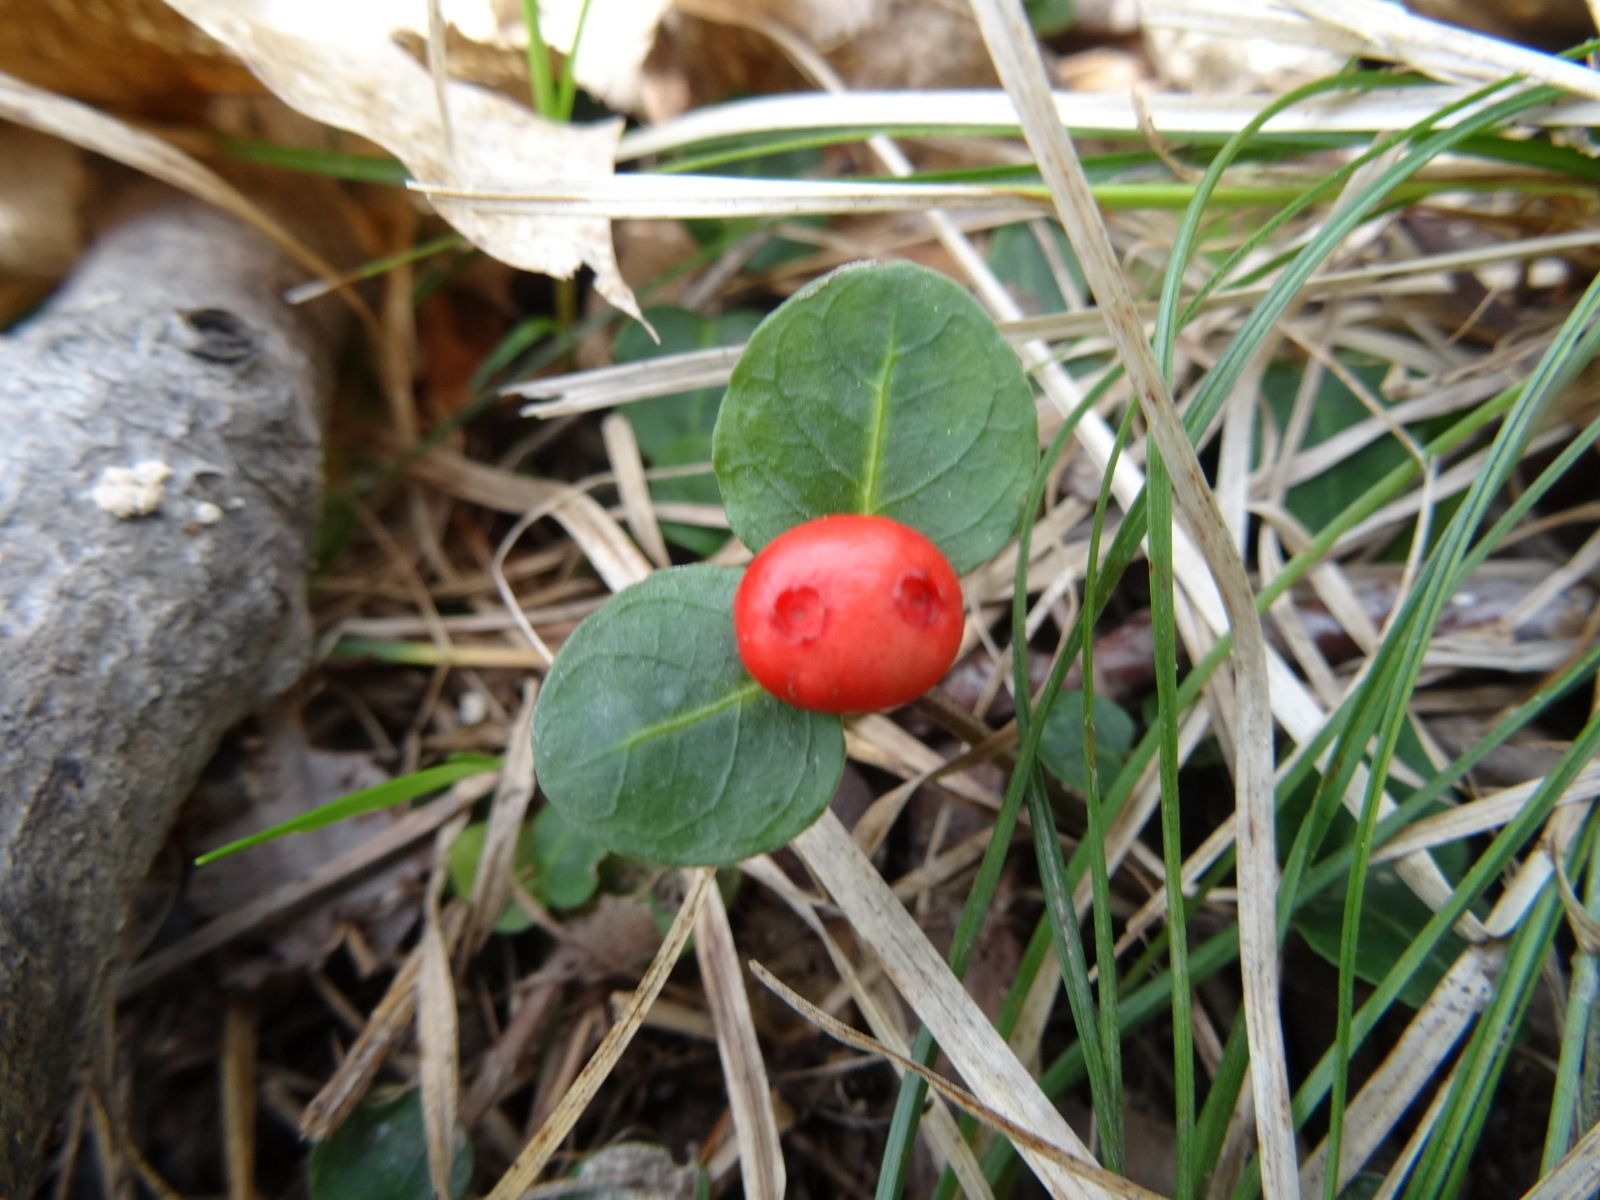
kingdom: Plantae
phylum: Tracheophyta
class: Magnoliopsida
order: Gentianales
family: Rubiaceae
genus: Mitchella
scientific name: Mitchella repens
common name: Partridge-berry
